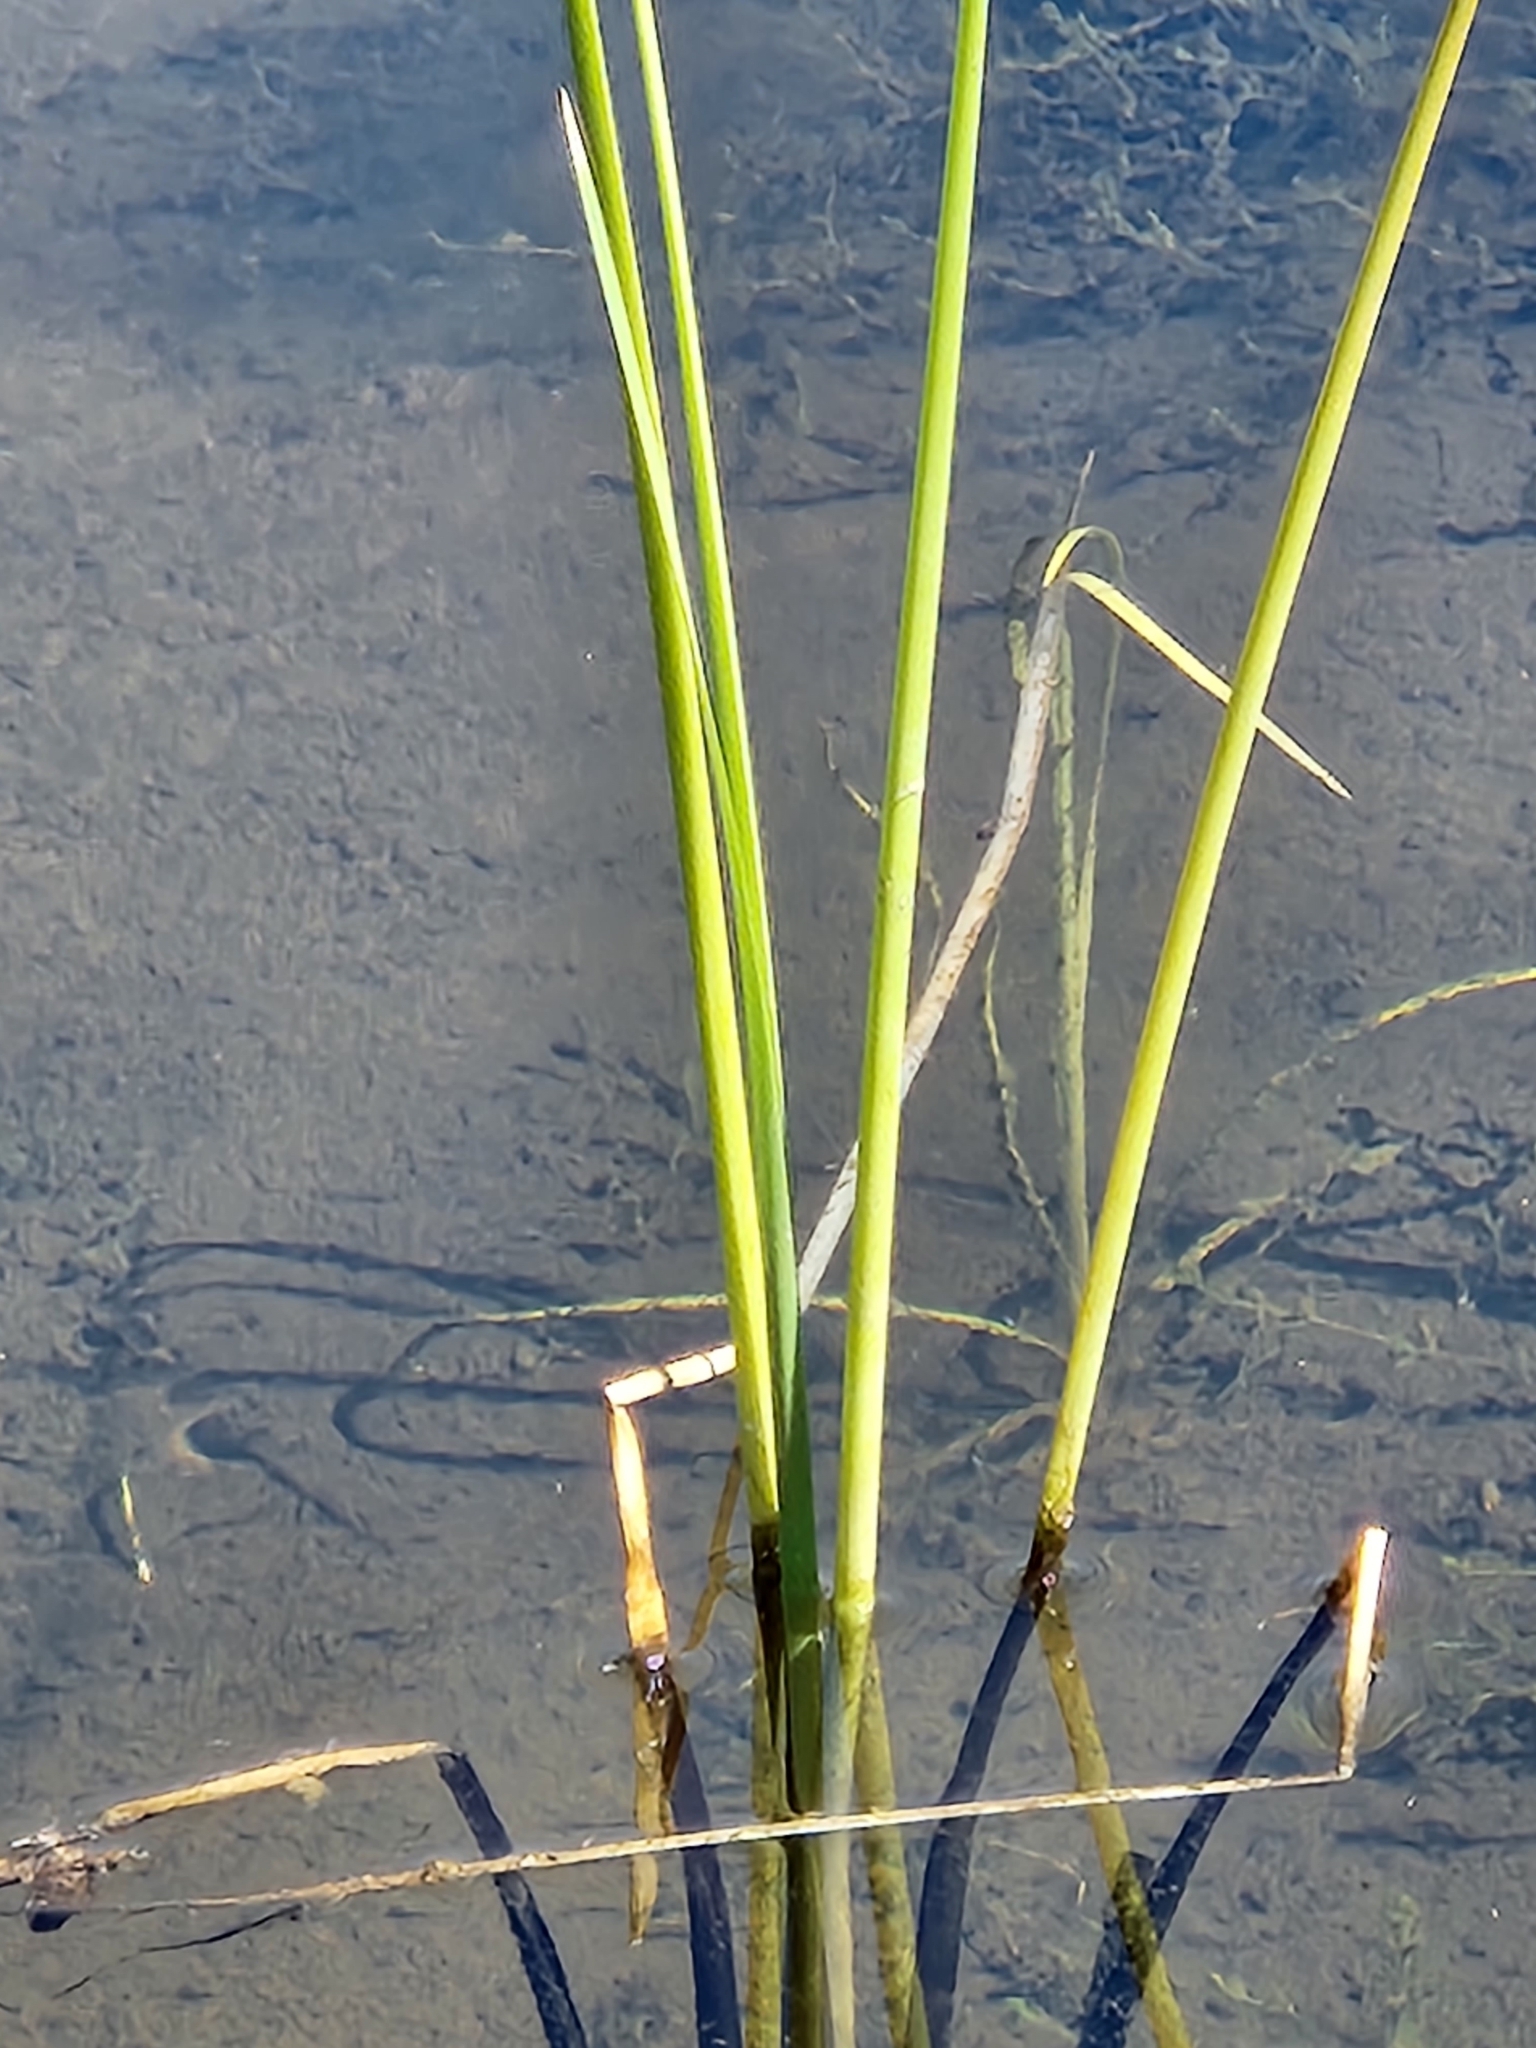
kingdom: Plantae
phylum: Tracheophyta
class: Liliopsida
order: Poales
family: Poaceae
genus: Sporobolus
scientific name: Sporobolus foliosus
